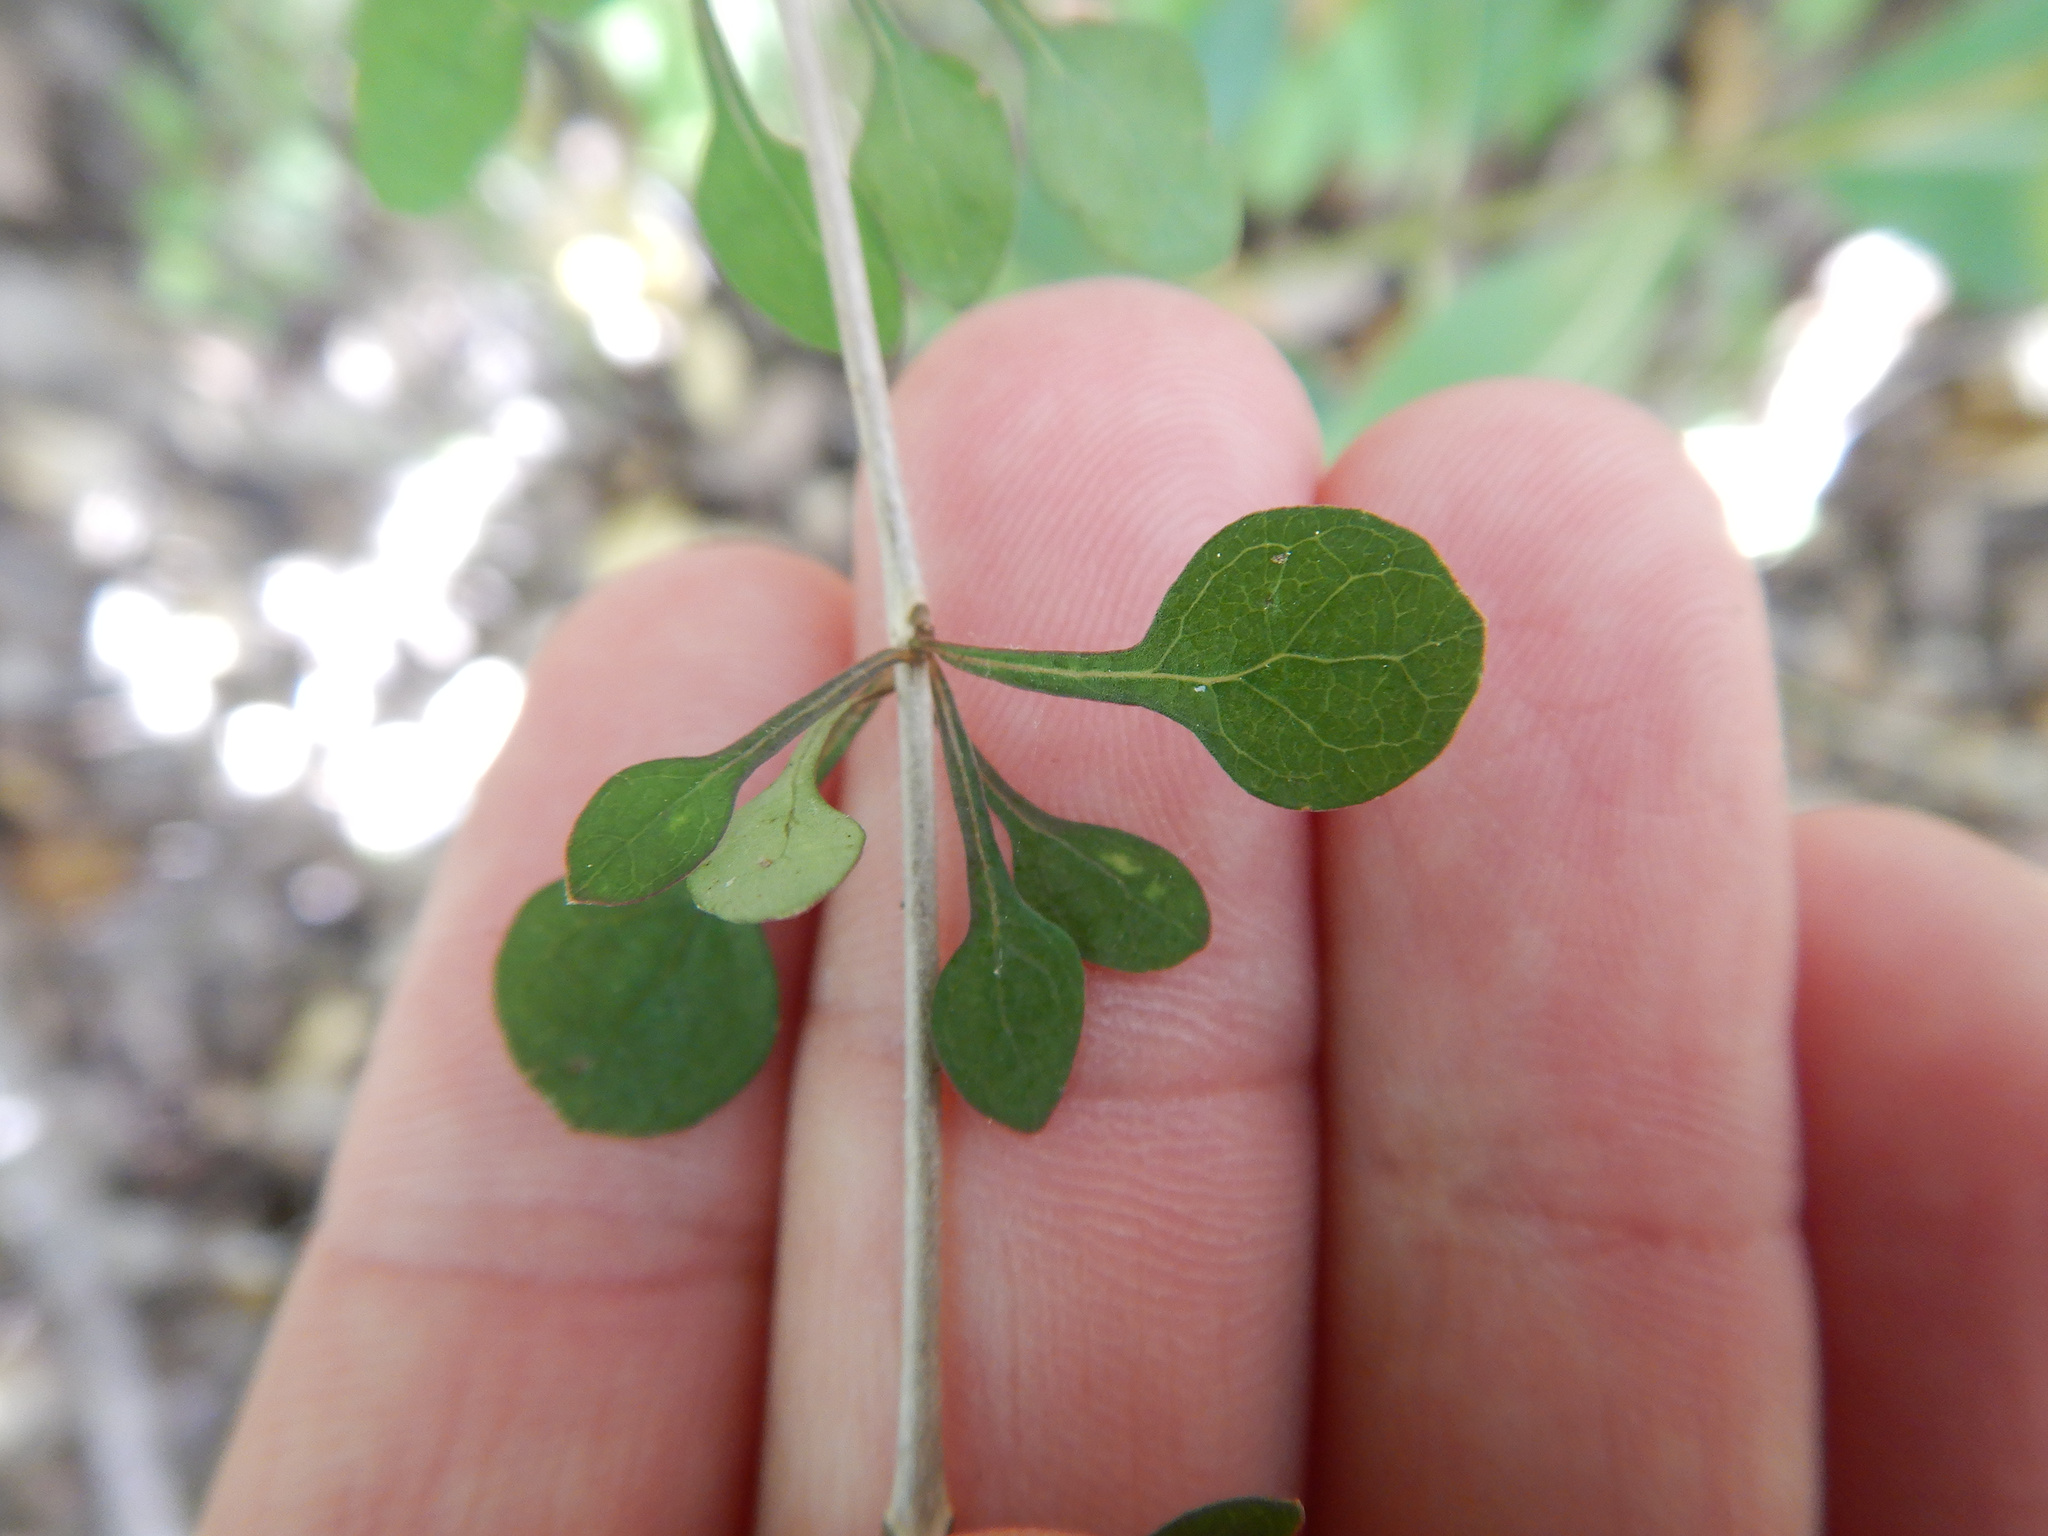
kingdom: Plantae
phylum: Tracheophyta
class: Magnoliopsida
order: Gentianales
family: Rubiaceae
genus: Coprosma
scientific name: Coprosma virescens
